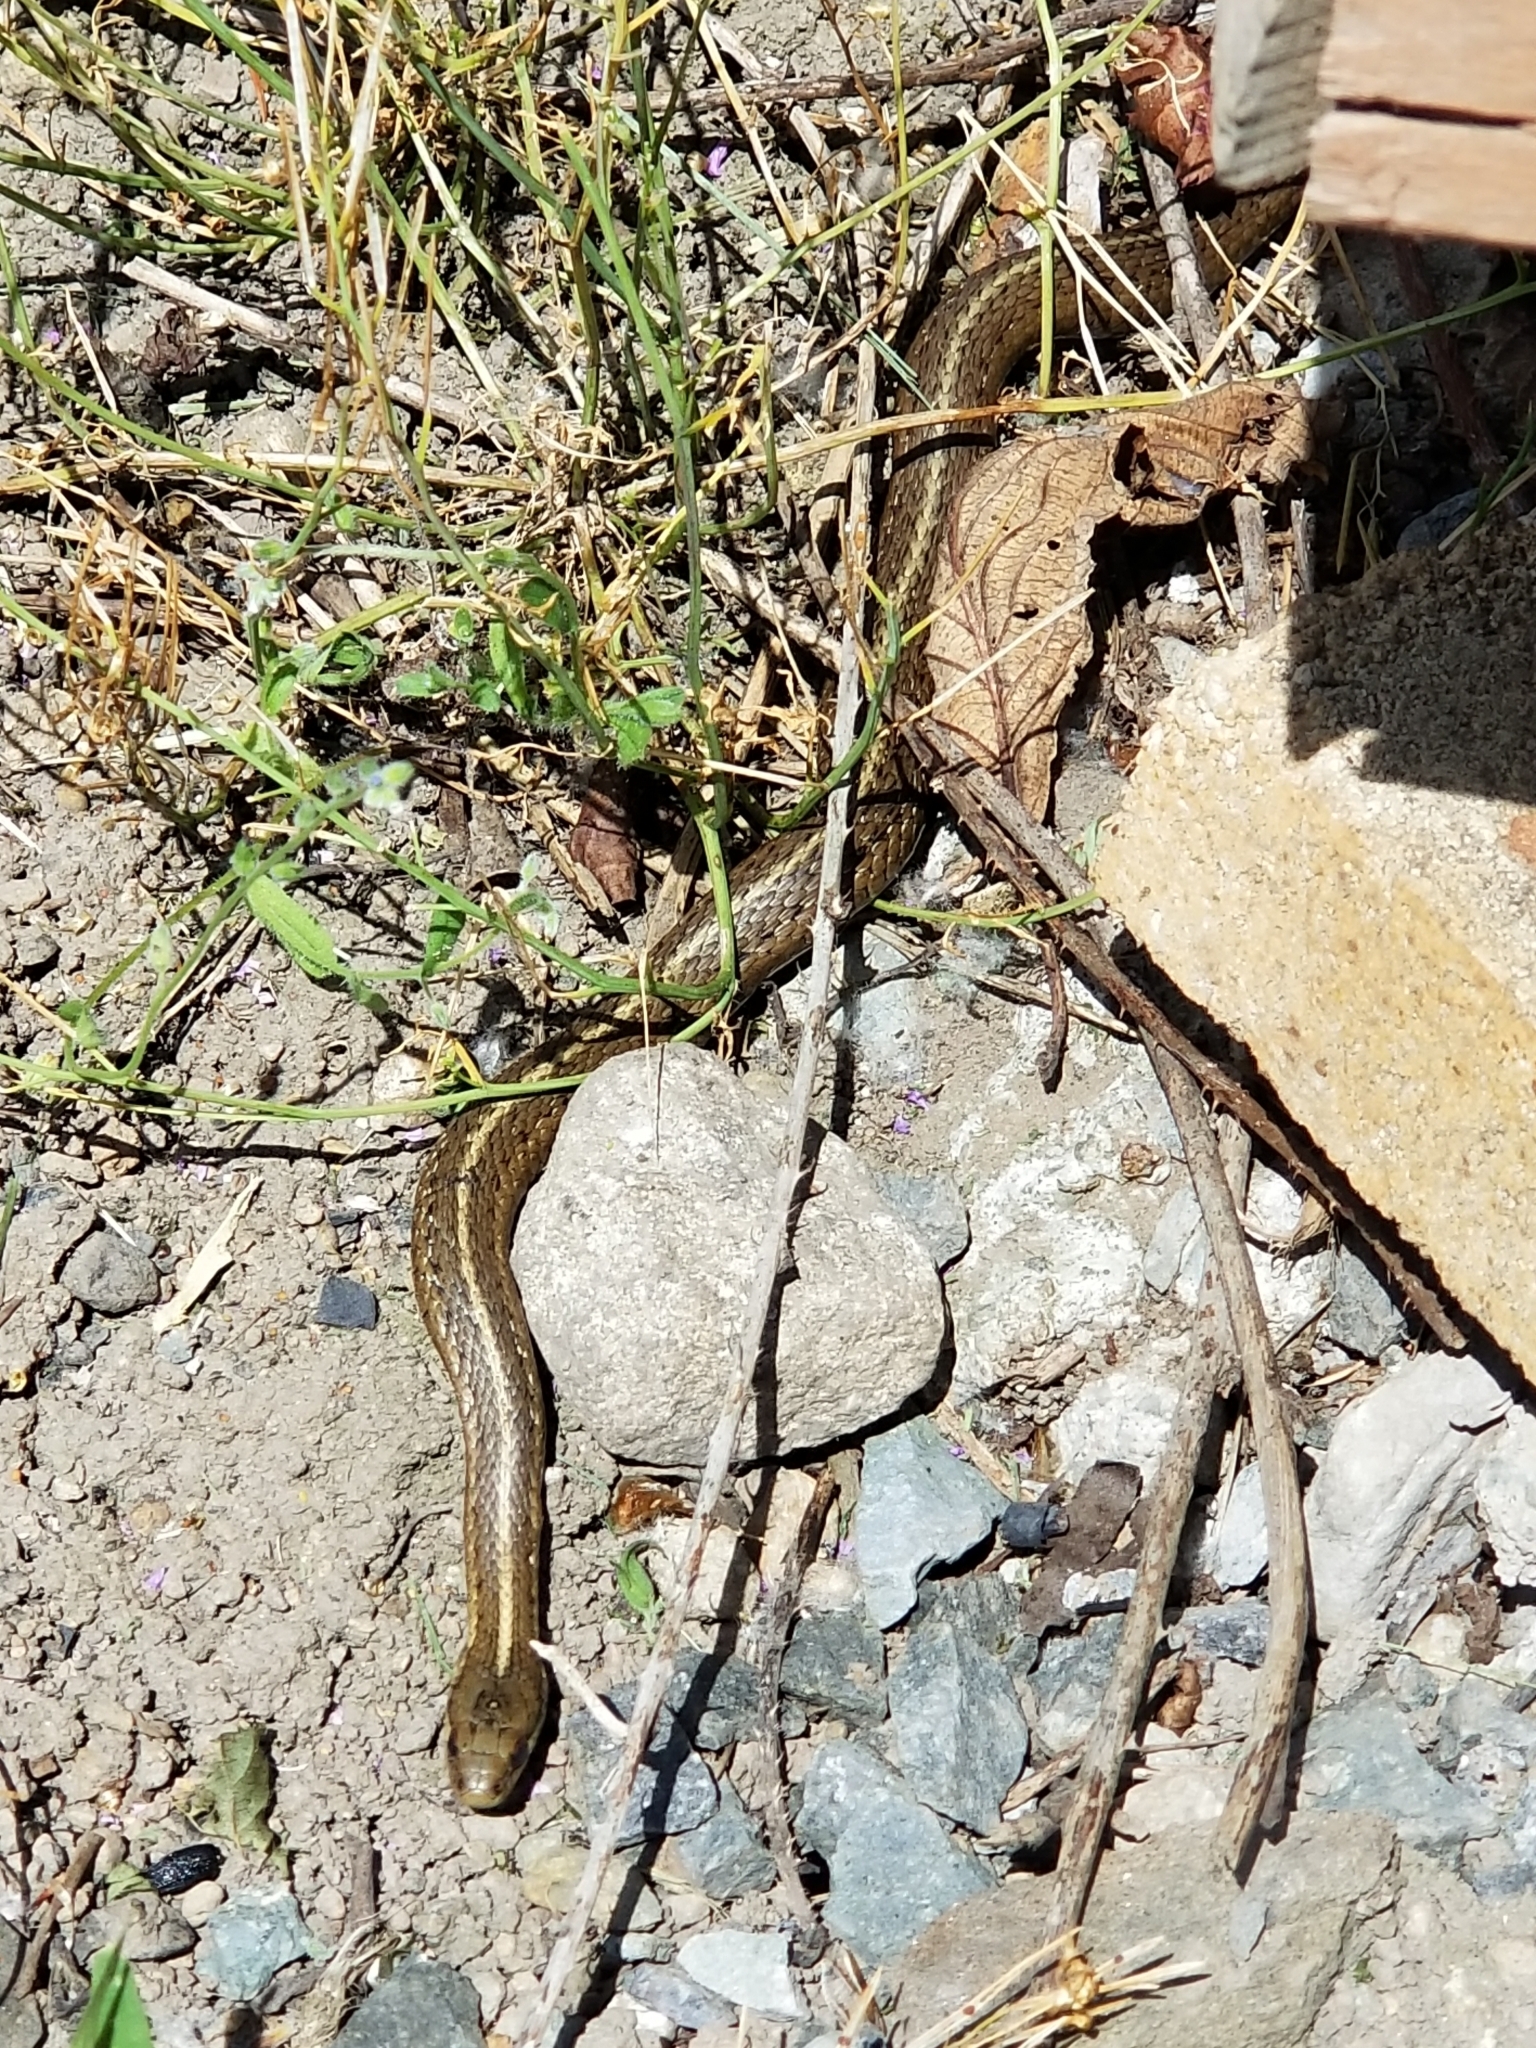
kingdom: Animalia
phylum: Chordata
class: Squamata
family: Colubridae
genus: Thamnophis
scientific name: Thamnophis ordinoides
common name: Northwestern garter snake
